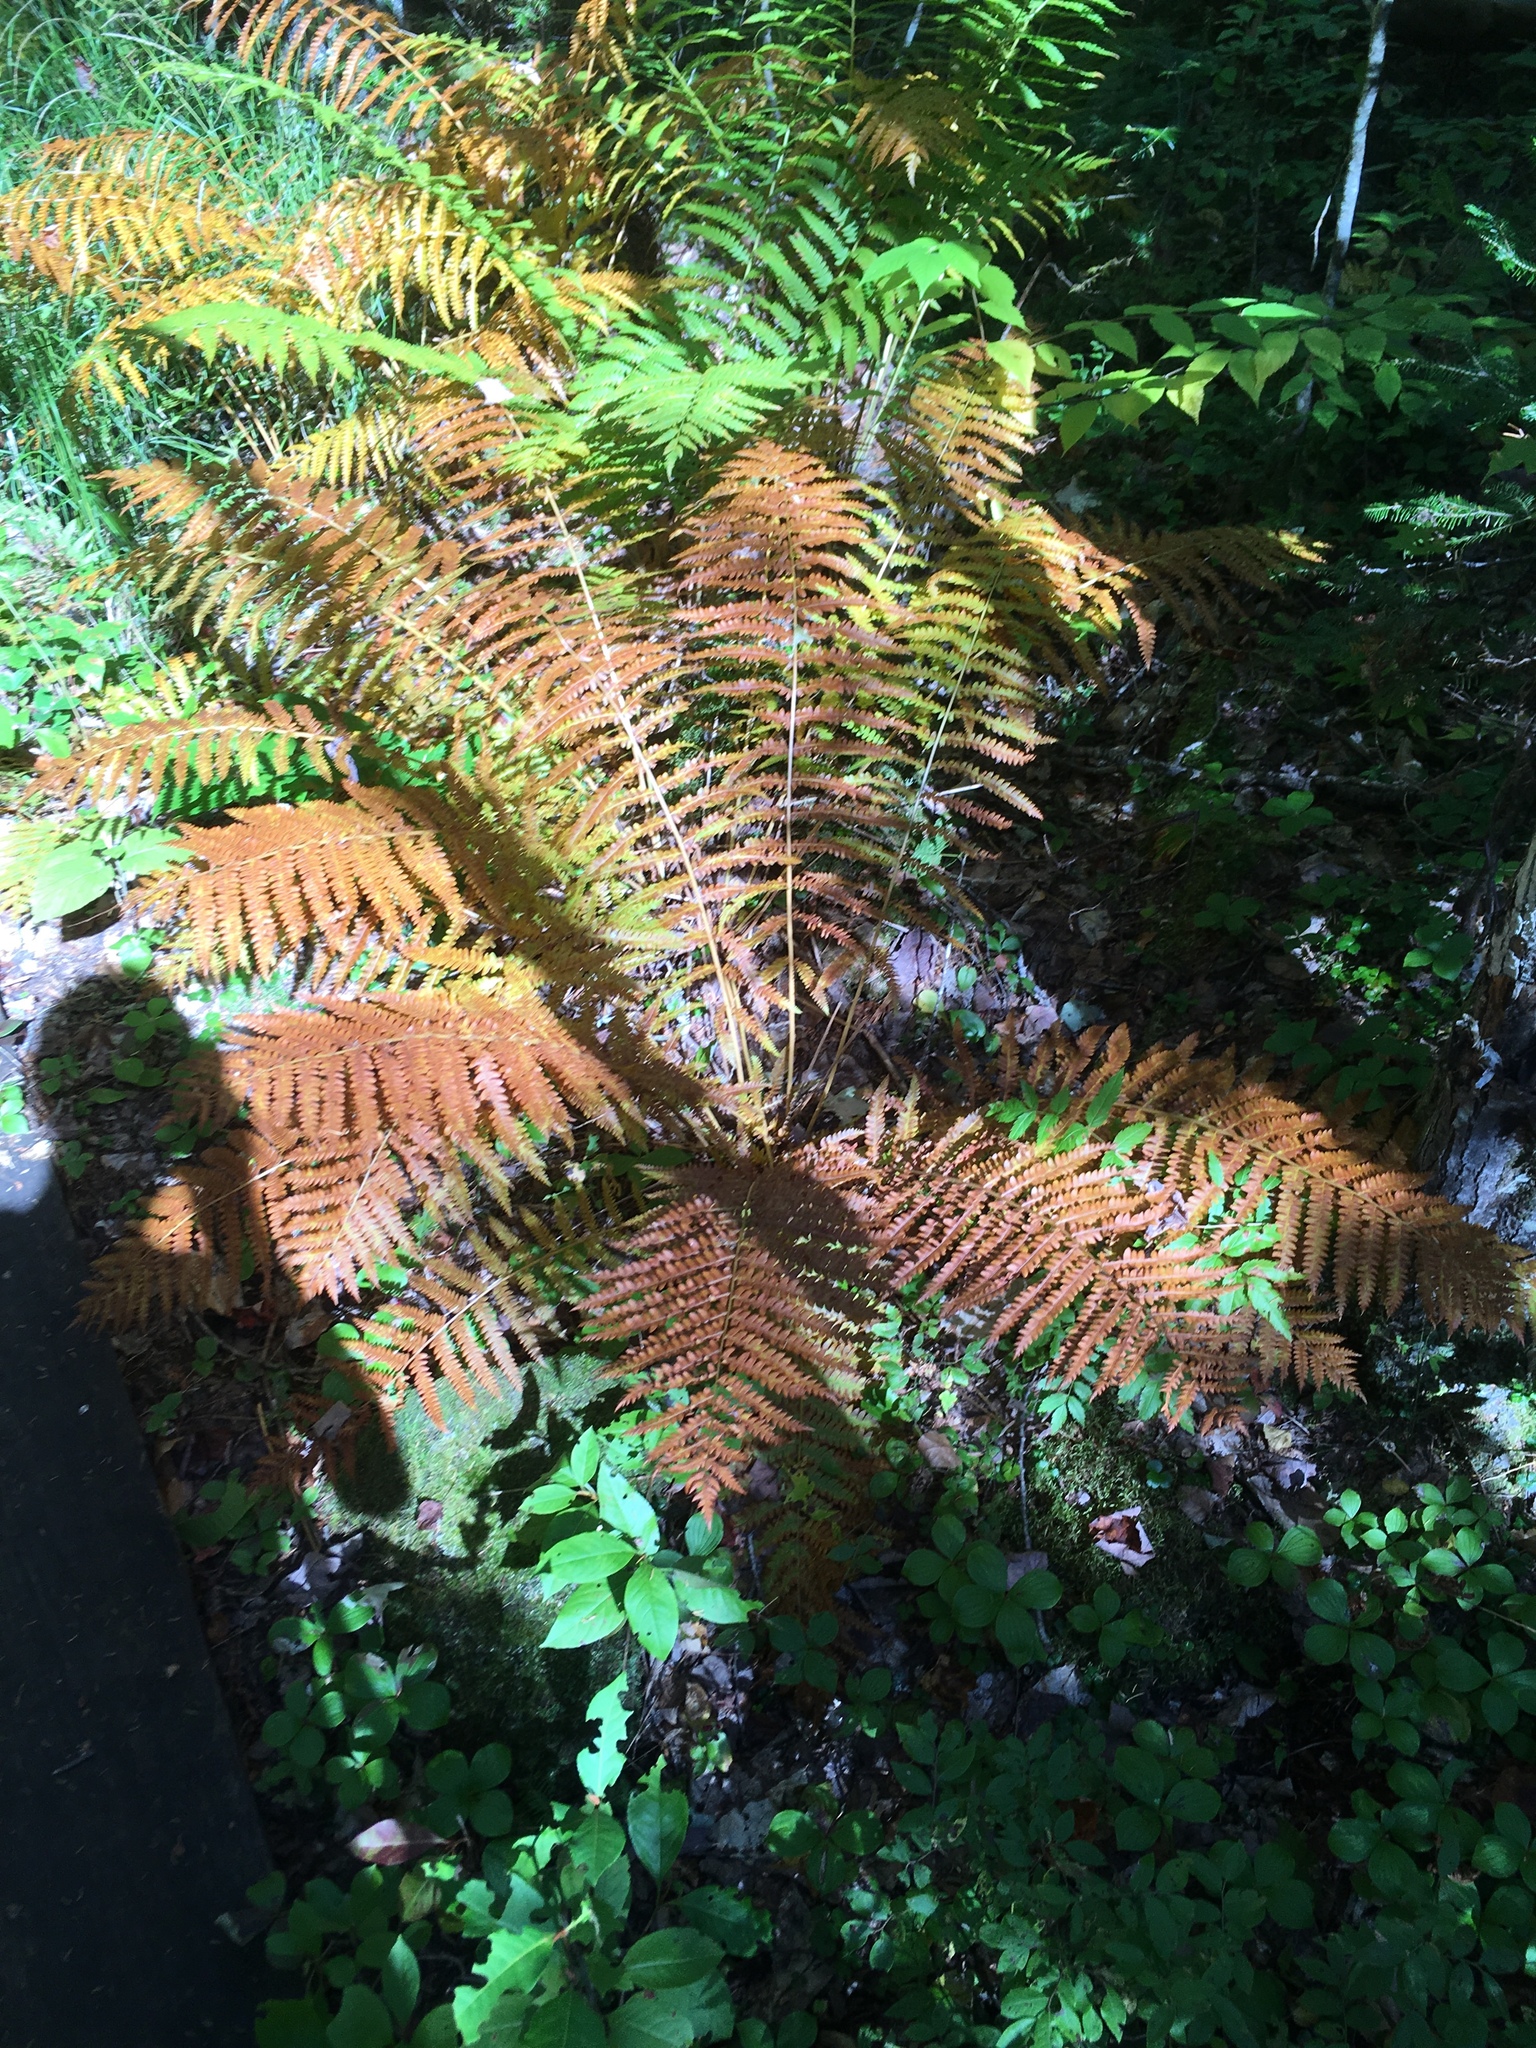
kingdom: Plantae
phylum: Tracheophyta
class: Polypodiopsida
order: Osmundales
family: Osmundaceae
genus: Osmundastrum
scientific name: Osmundastrum cinnamomeum
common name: Cinnamon fern
